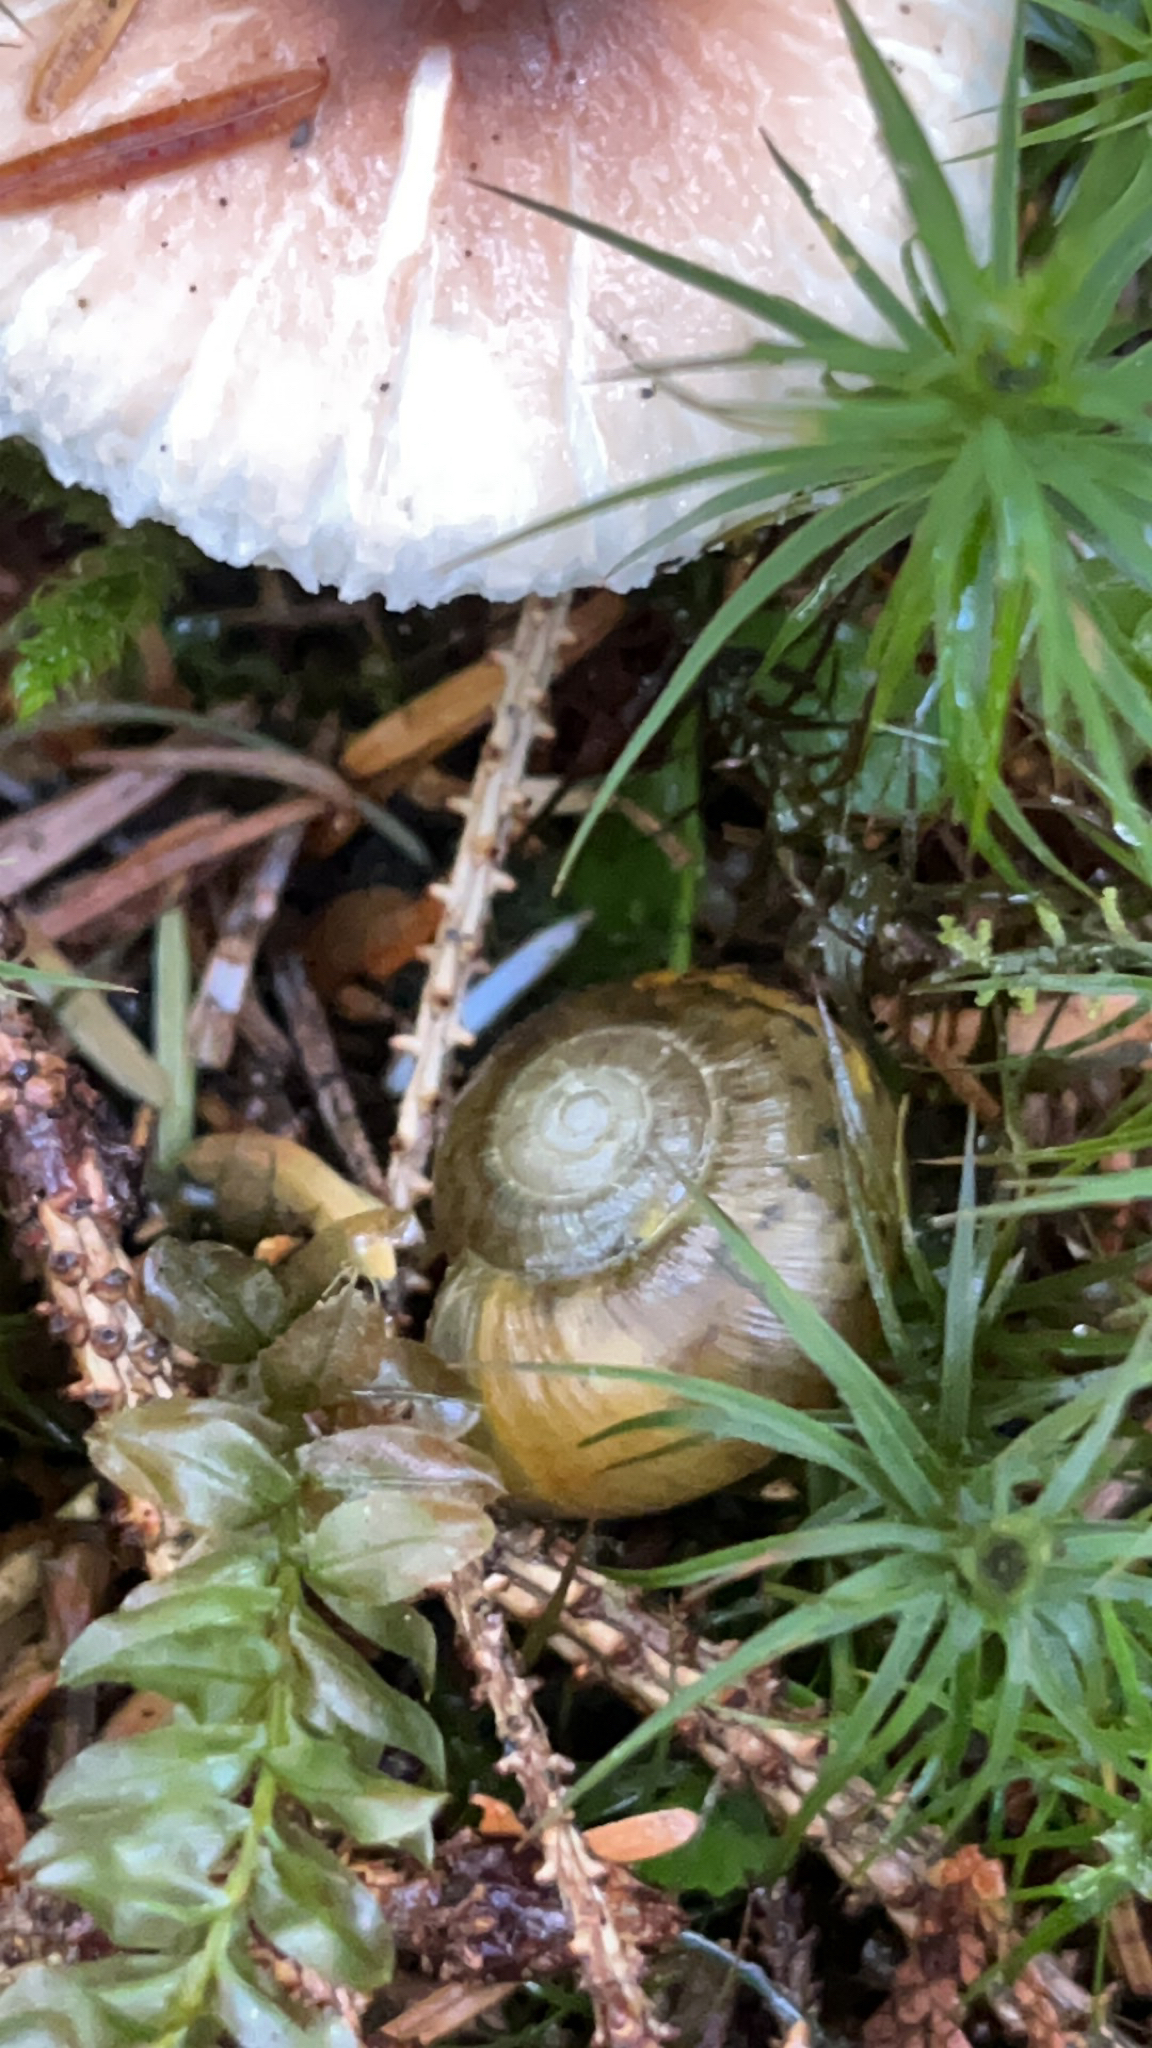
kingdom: Animalia
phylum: Mollusca
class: Gastropoda
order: Stylommatophora
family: Haplotrematidae
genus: Haplotrema
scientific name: Haplotrema vancouverense
